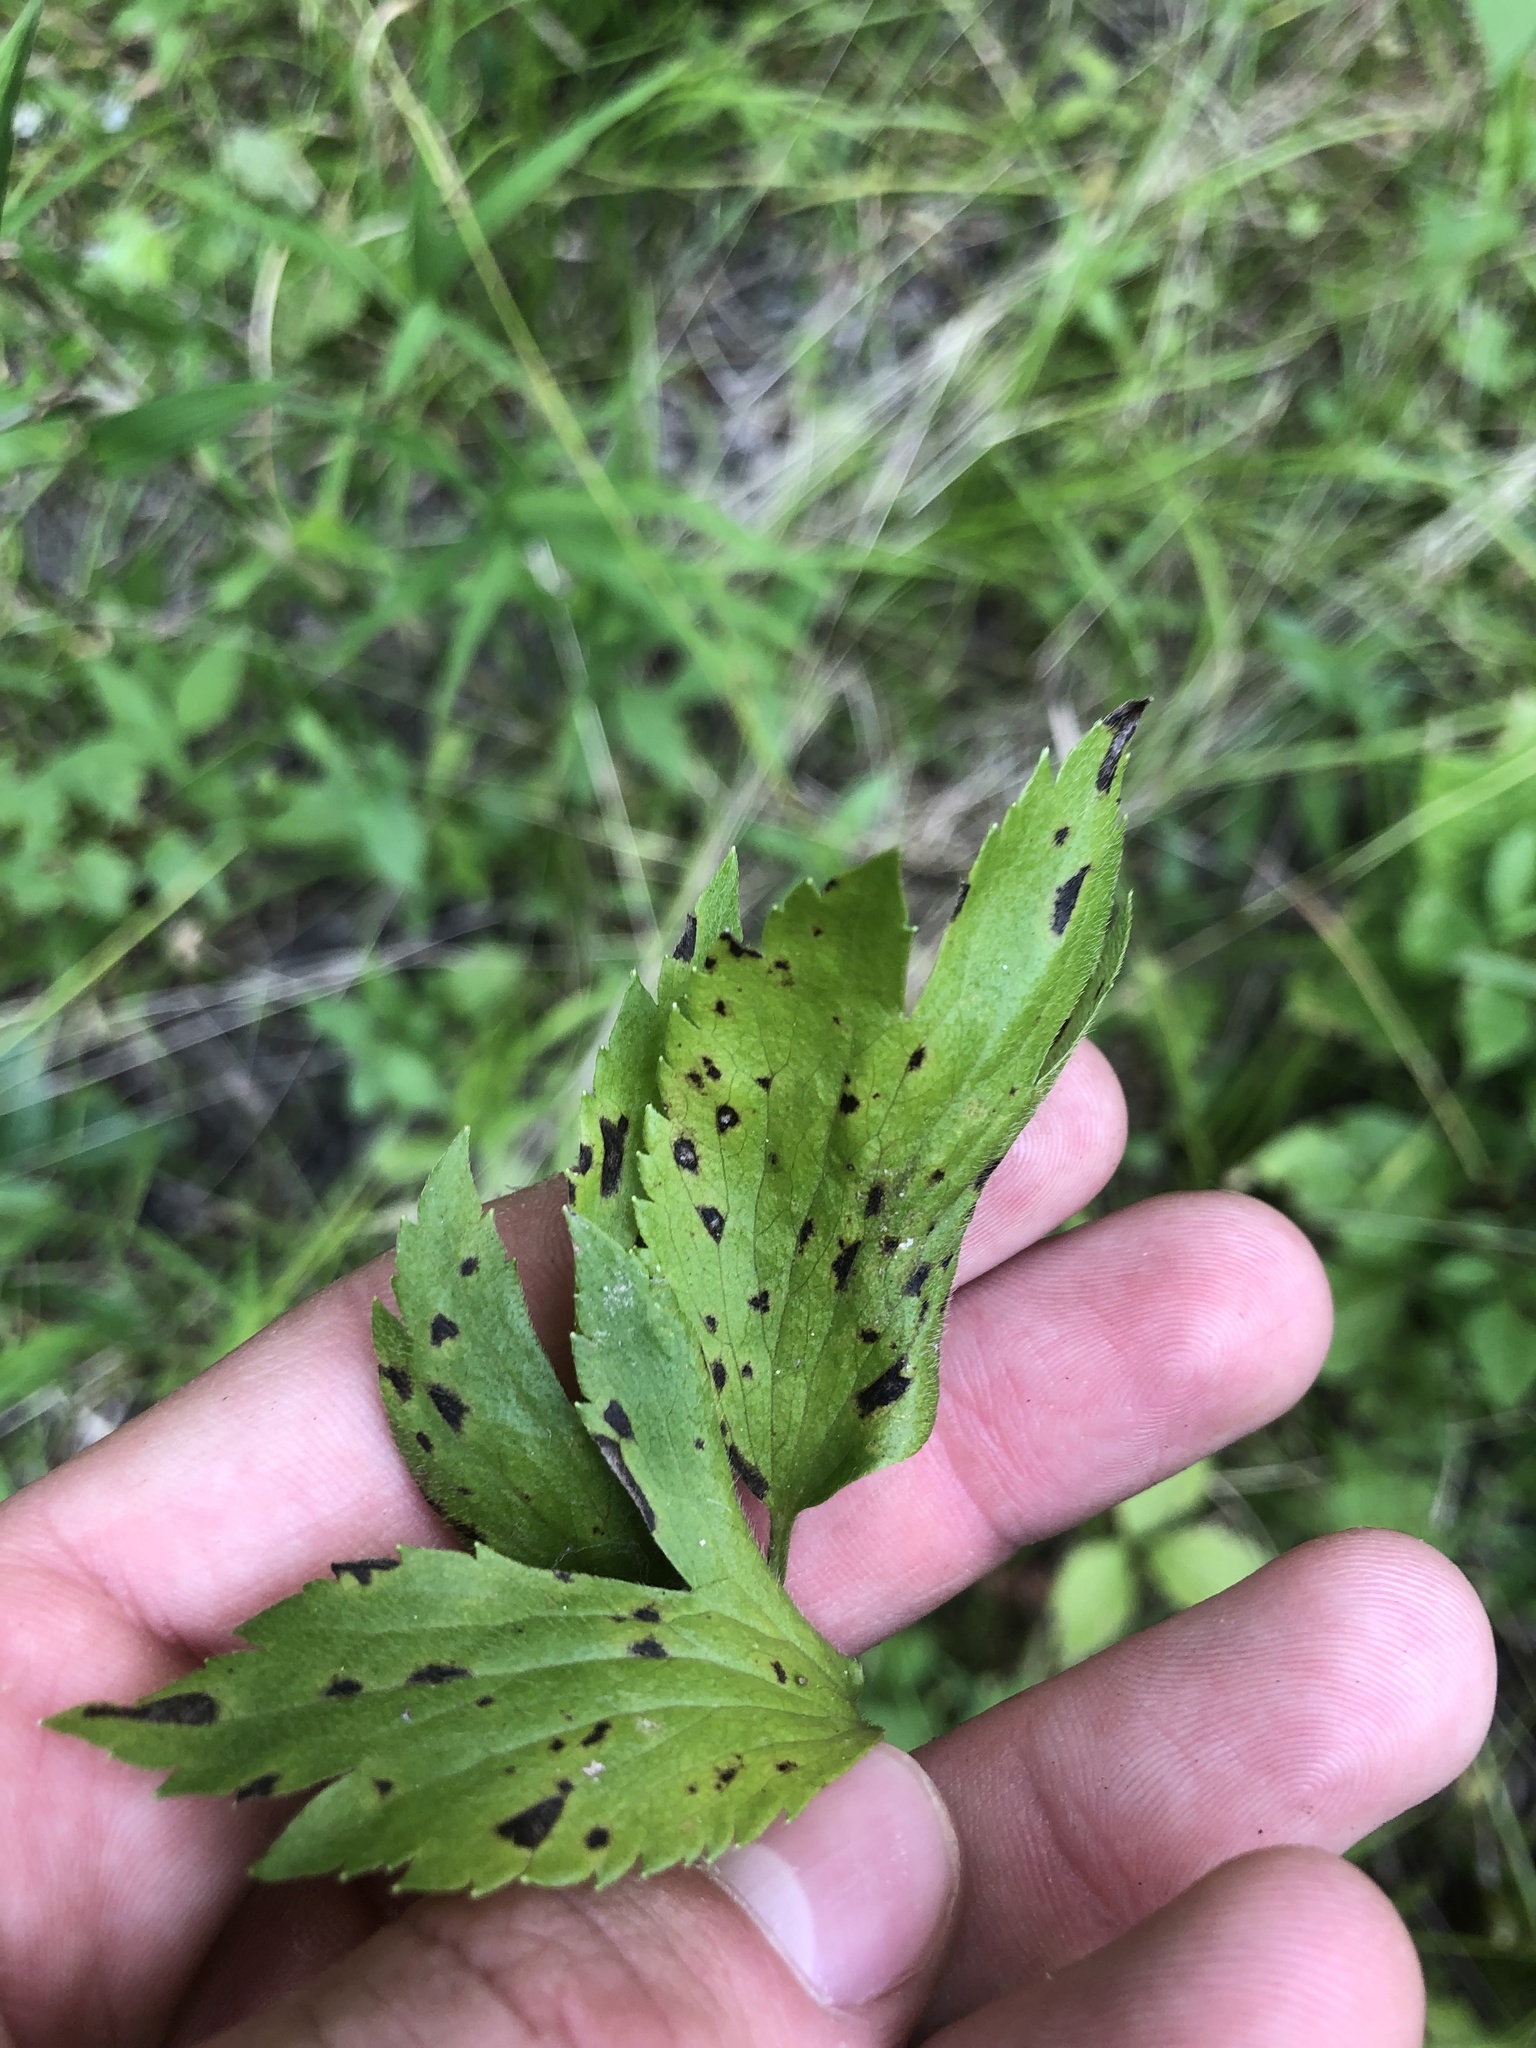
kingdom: Plantae
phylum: Tracheophyta
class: Magnoliopsida
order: Ranunculales
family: Ranunculaceae
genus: Anemone
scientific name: Anemone virginiana
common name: Tall anemone
